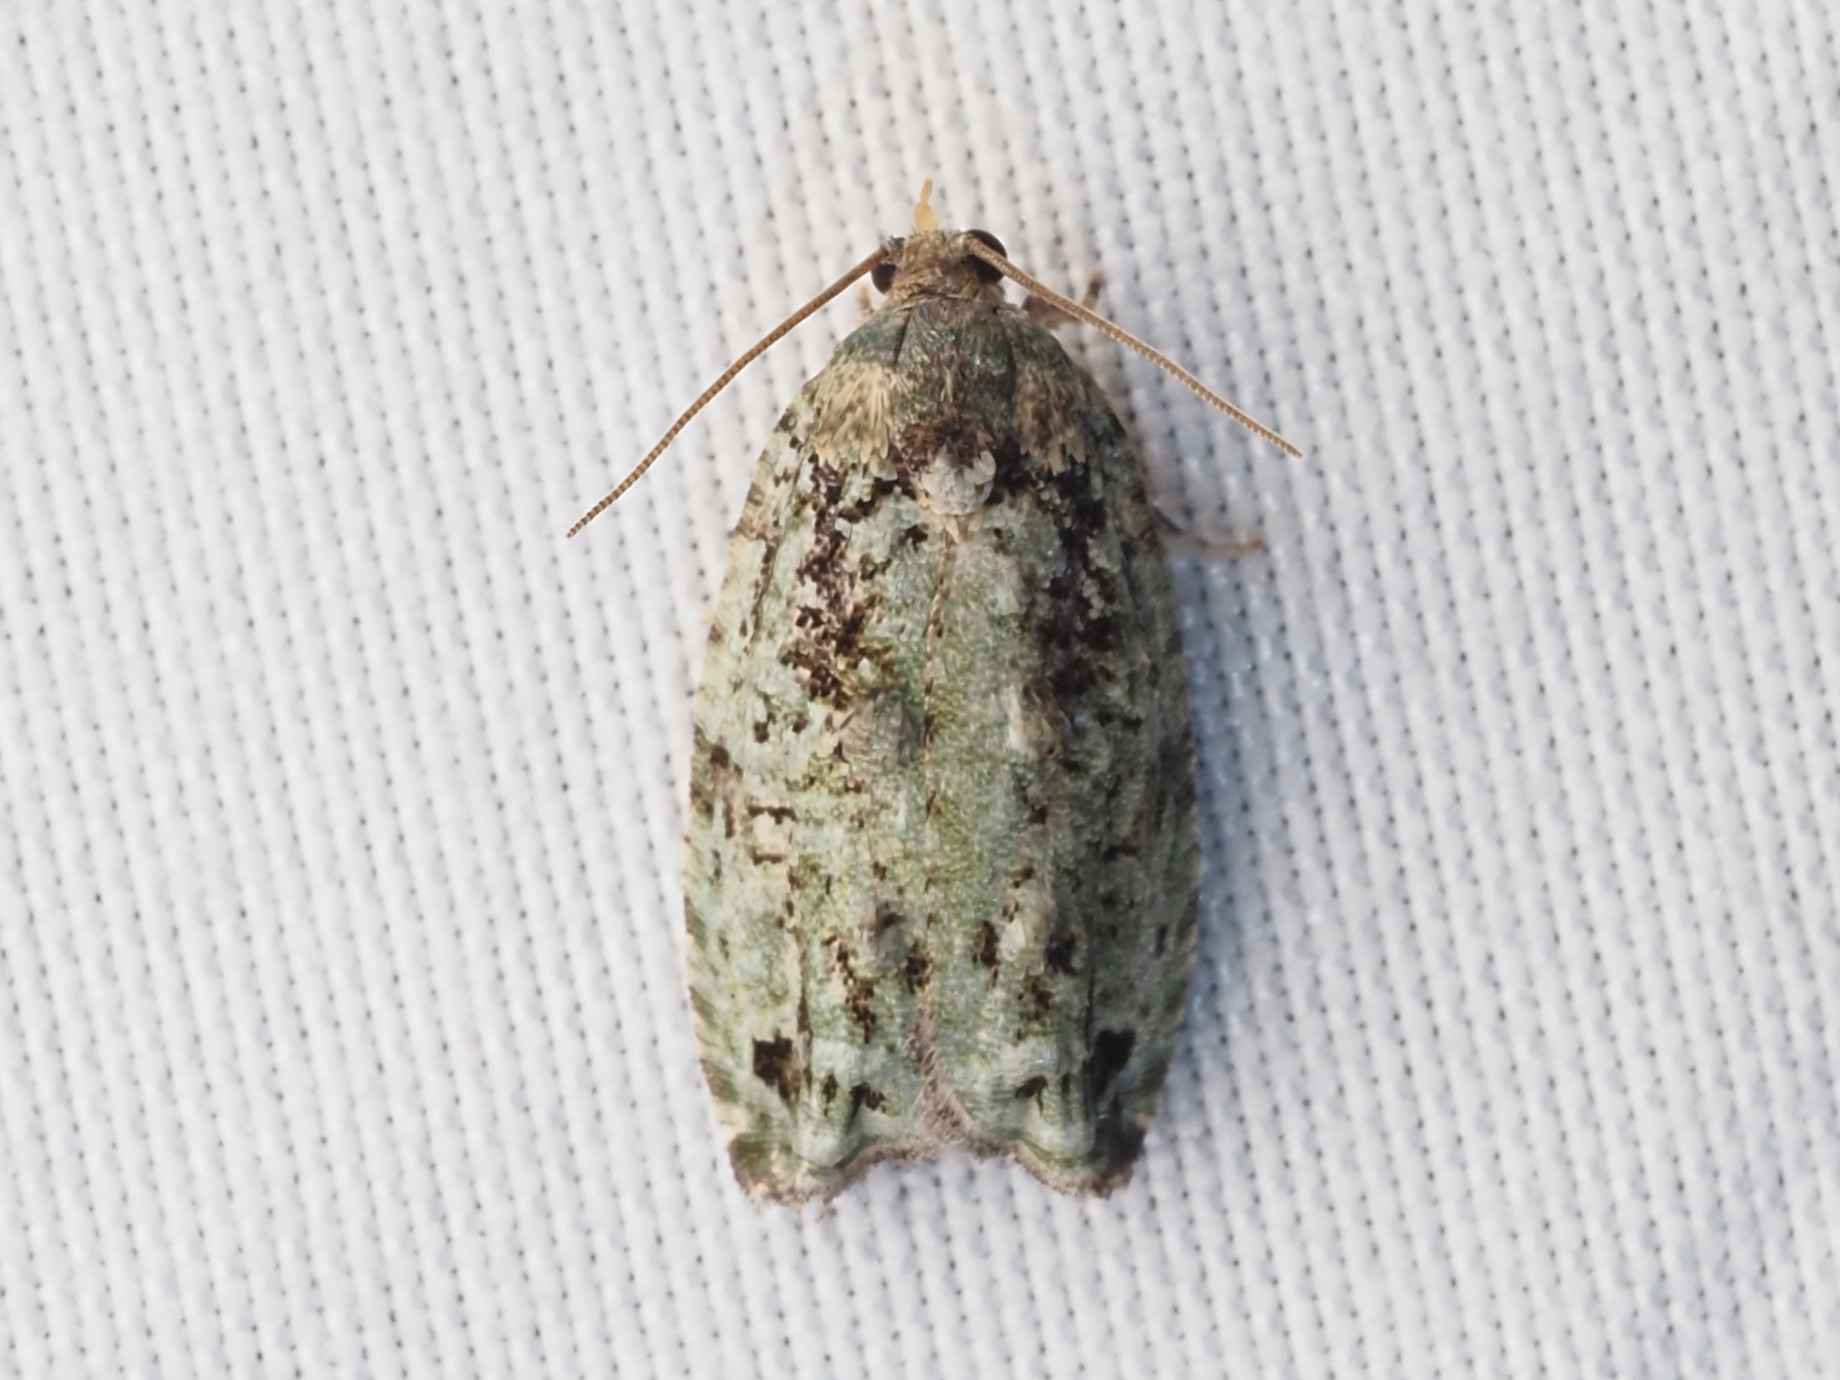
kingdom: Animalia
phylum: Arthropoda
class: Insecta
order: Lepidoptera
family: Tortricidae
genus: Proteoteras
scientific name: Proteoteras moffatiana
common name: Maple bud borer moth
